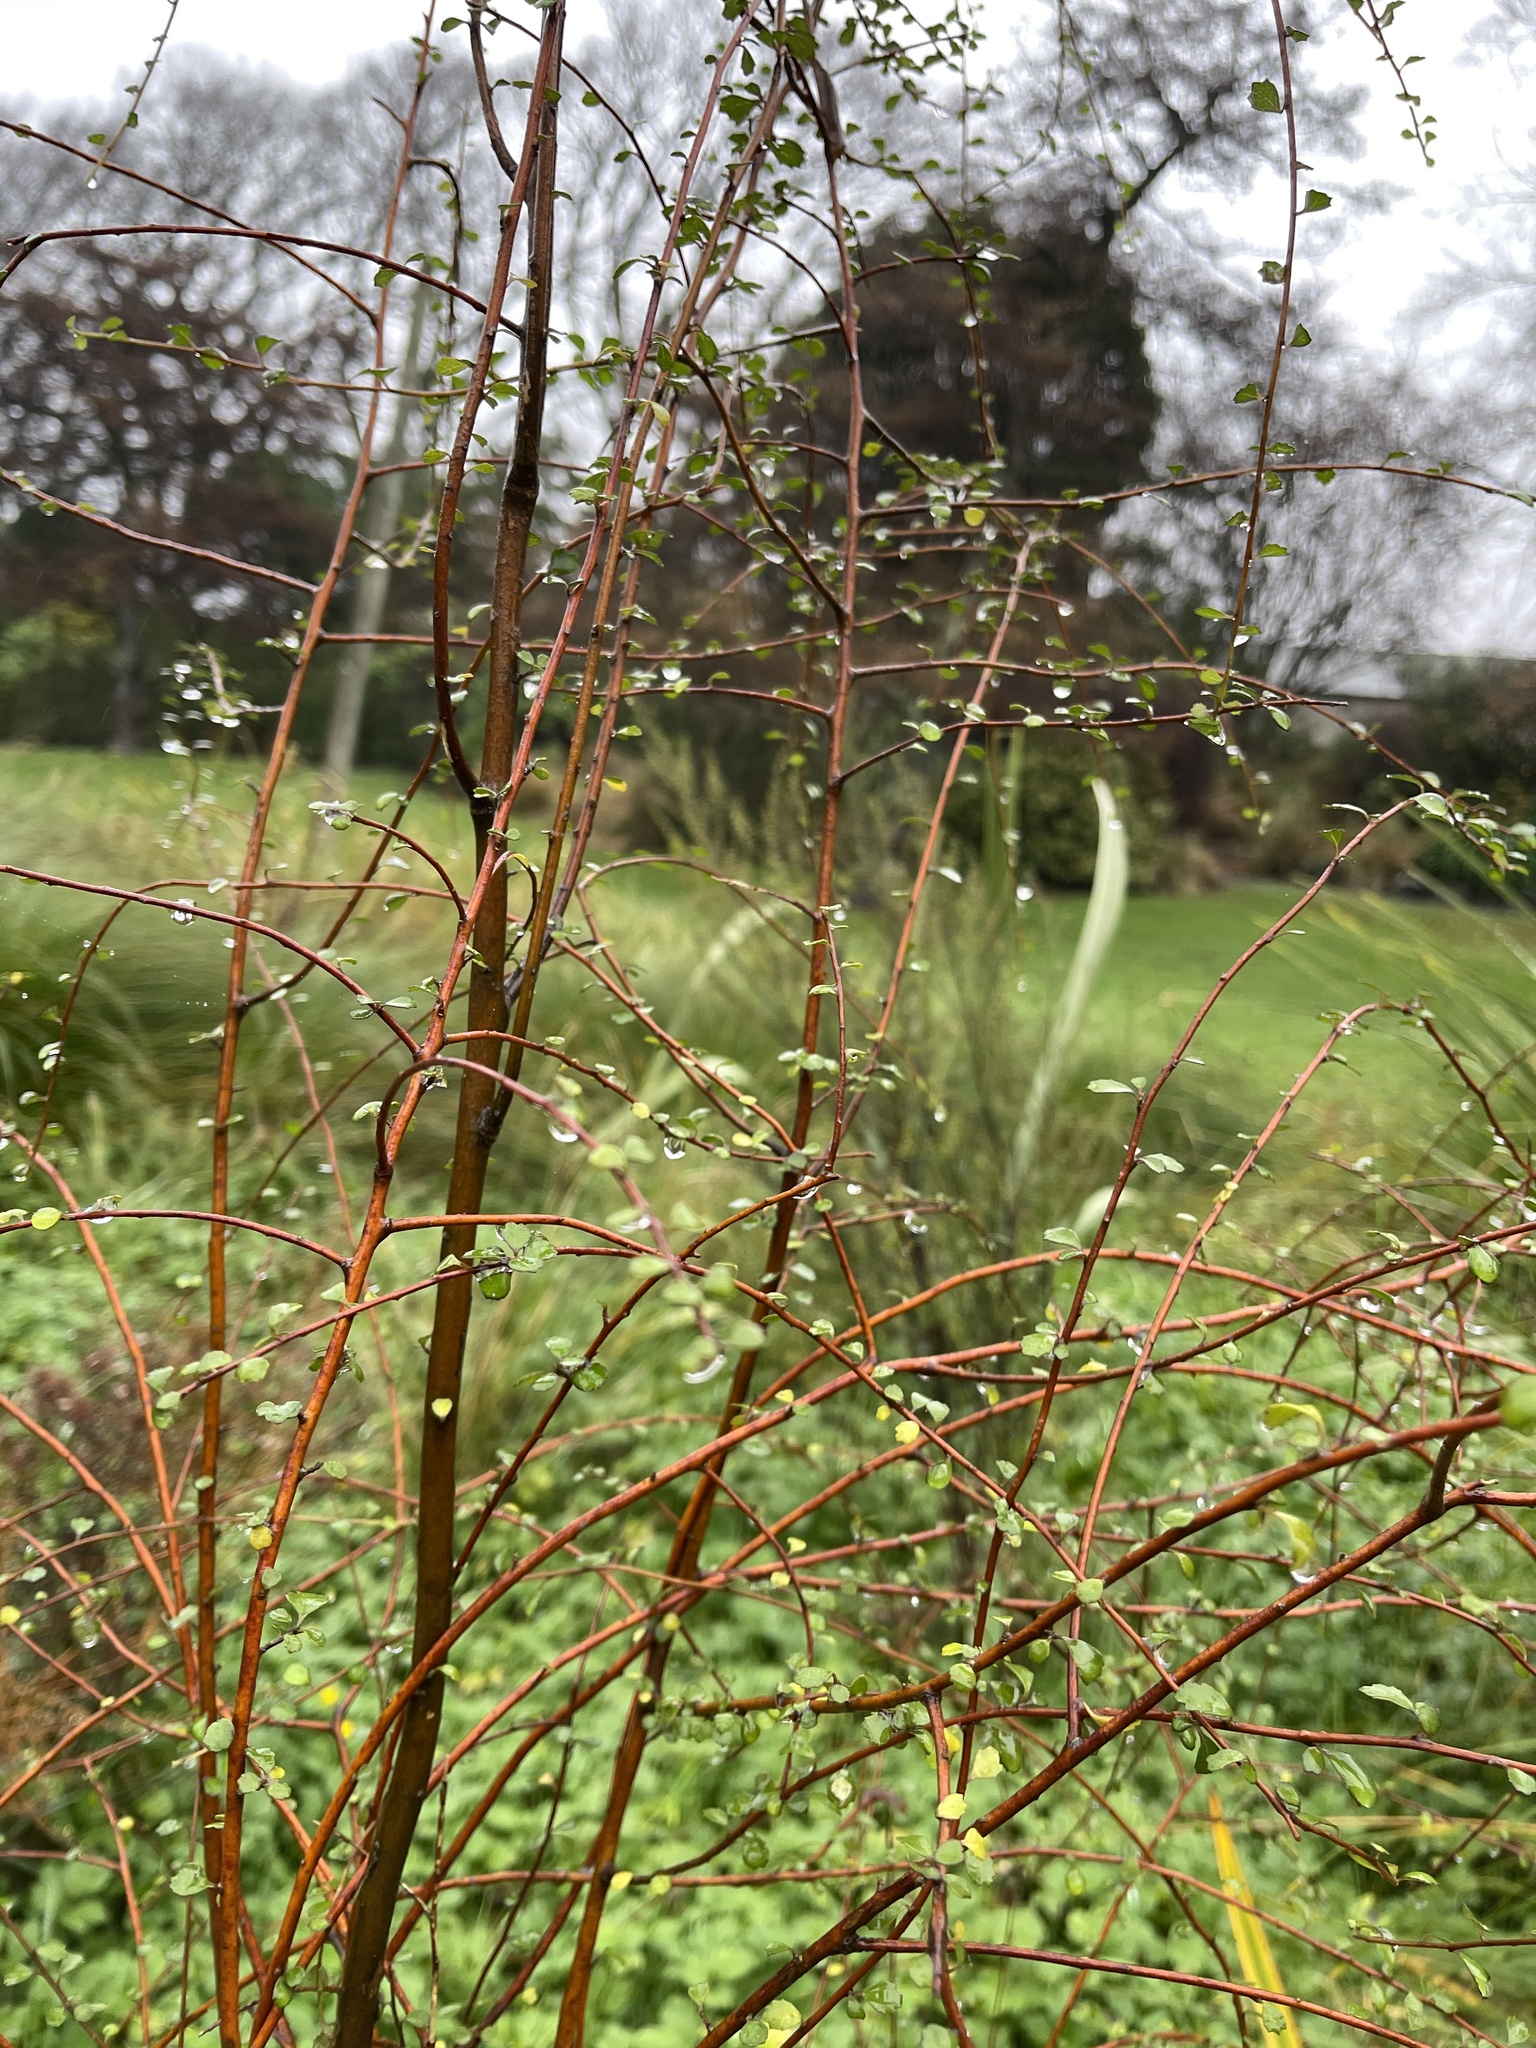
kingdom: Plantae
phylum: Tracheophyta
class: Magnoliopsida
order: Malvales
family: Malvaceae
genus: Hoheria
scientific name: Hoheria angustifolia
